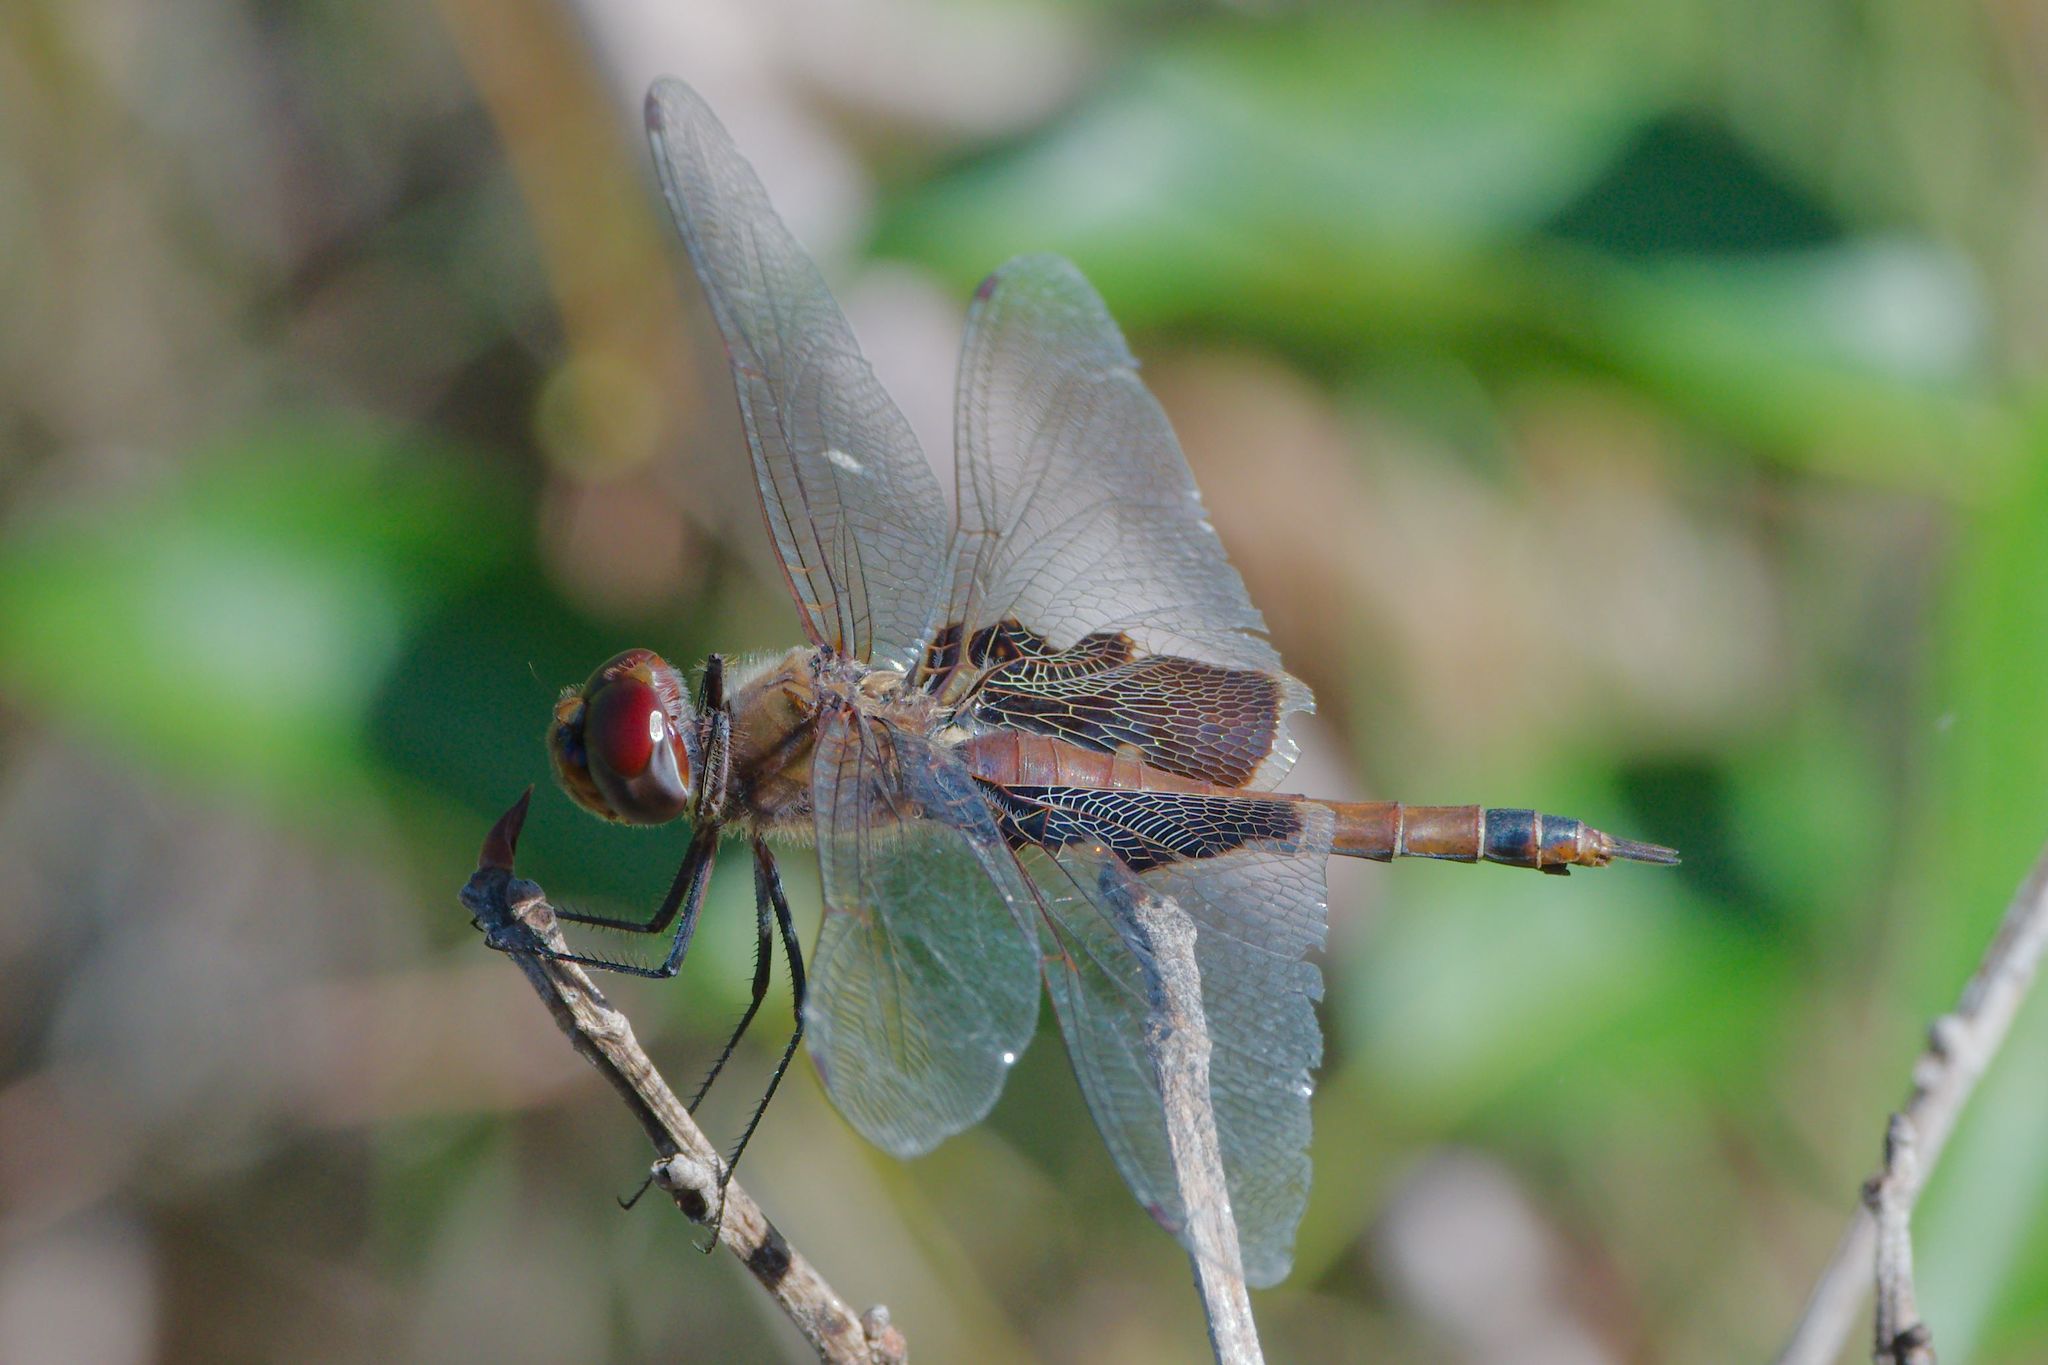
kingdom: Animalia
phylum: Arthropoda
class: Insecta
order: Odonata
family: Libellulidae
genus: Tramea
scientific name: Tramea carolina
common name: Carolina saddlebags
